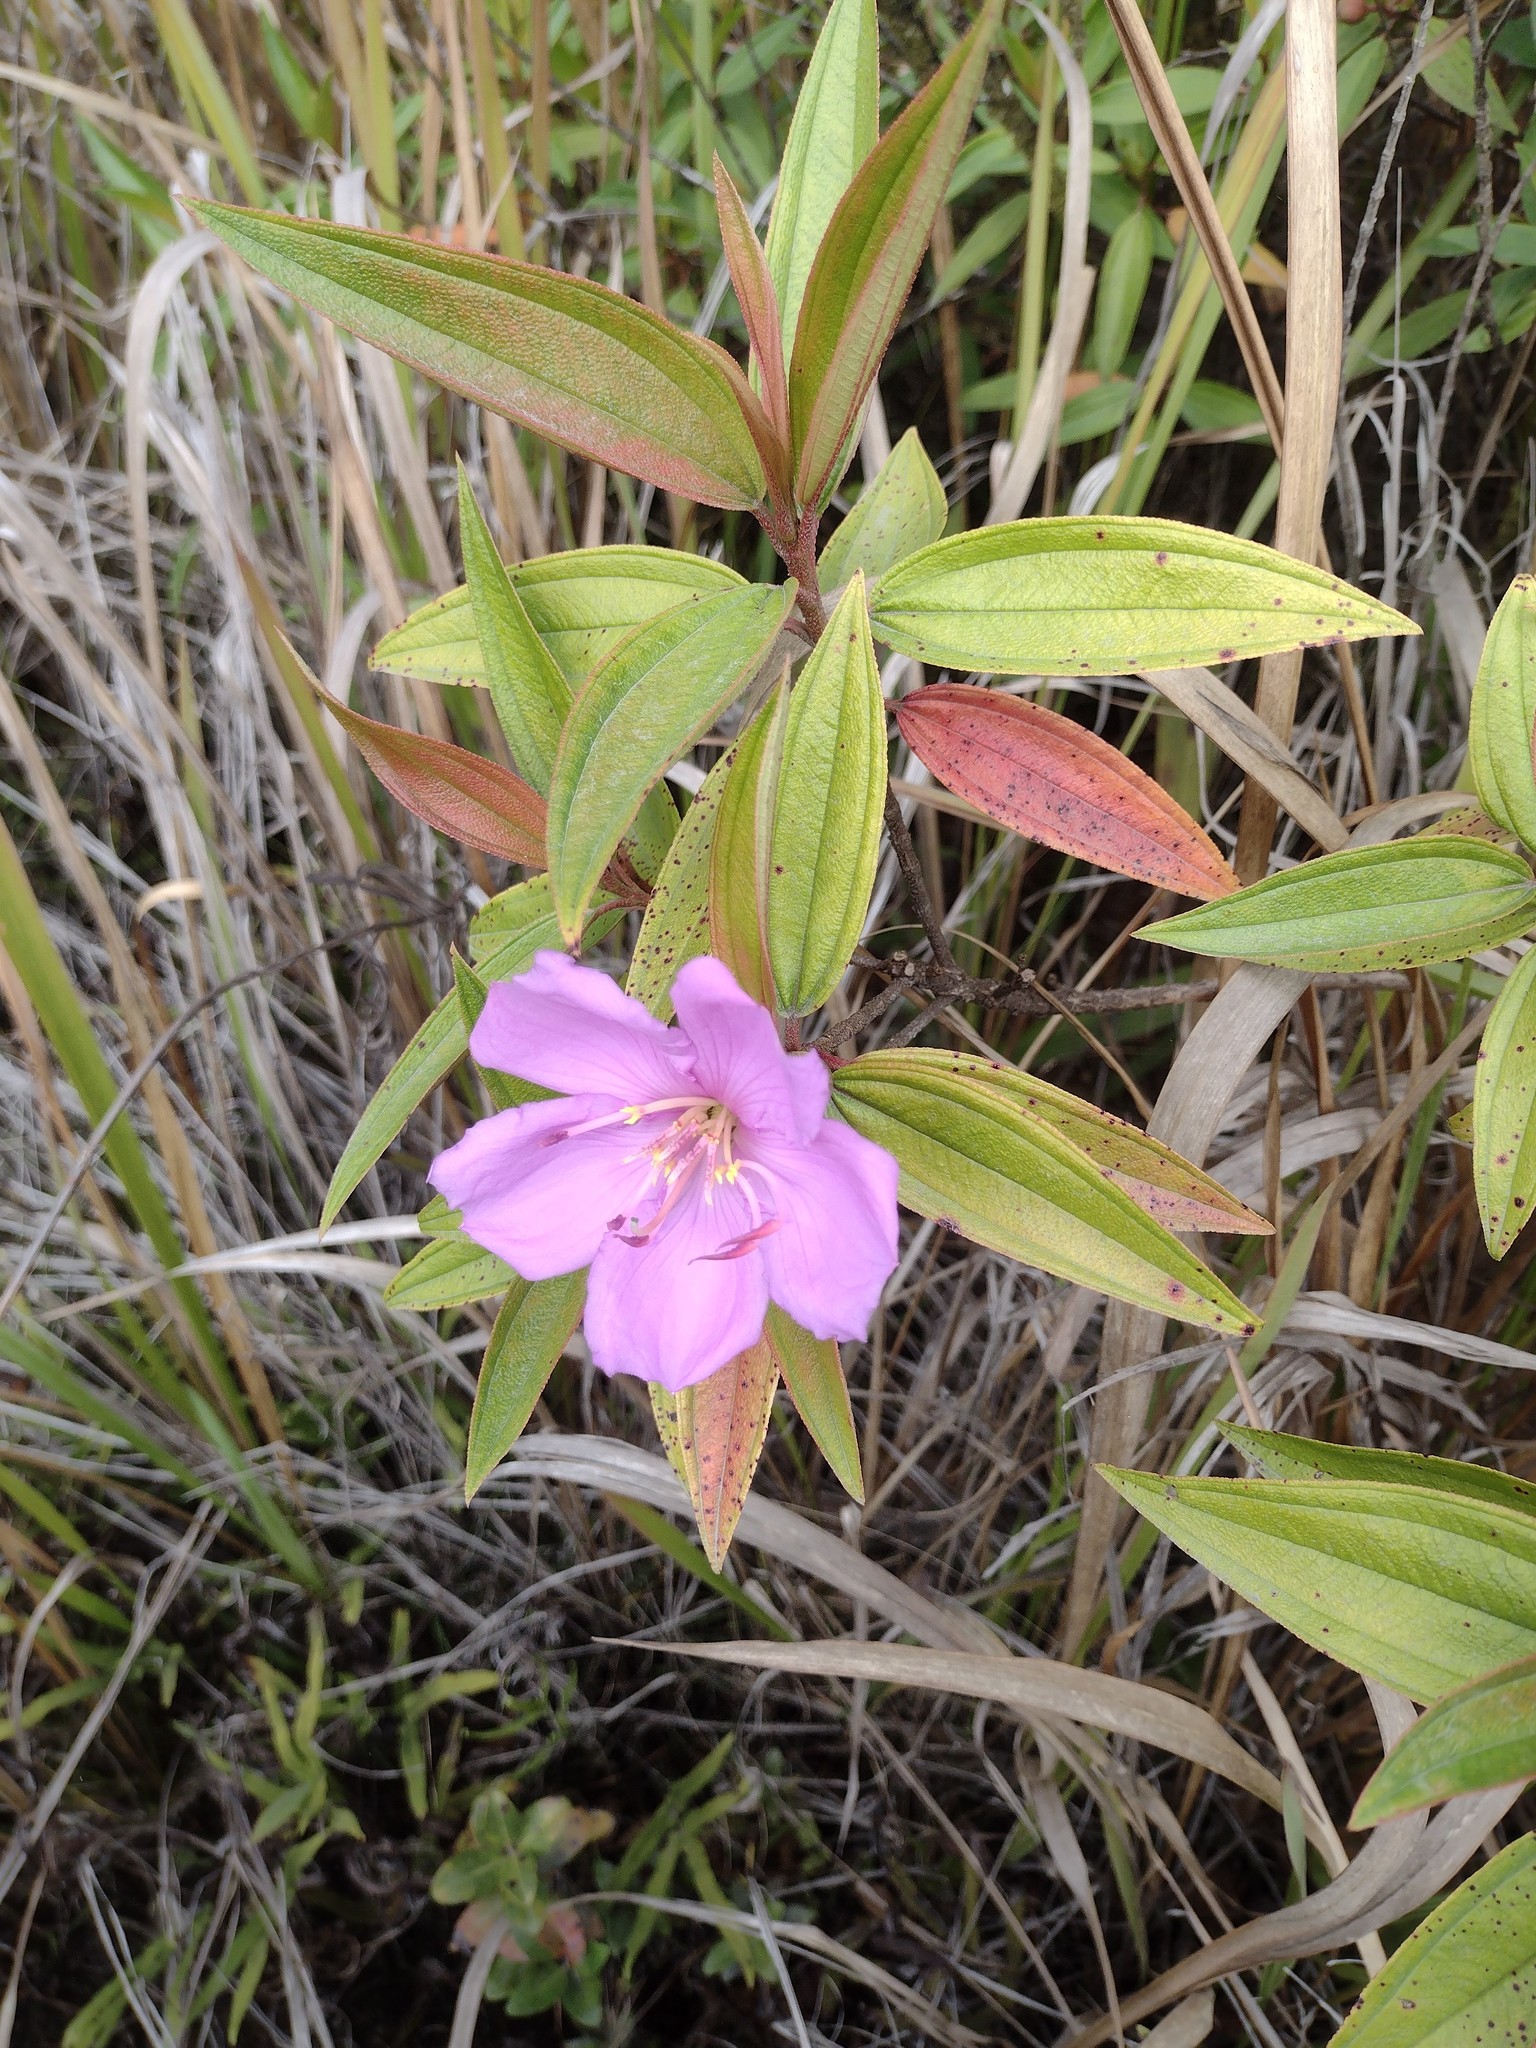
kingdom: Plantae
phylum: Tracheophyta
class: Magnoliopsida
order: Myrtales
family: Melastomataceae
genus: Melastoma
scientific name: Melastoma malabathricum
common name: Indian-rhododendron
